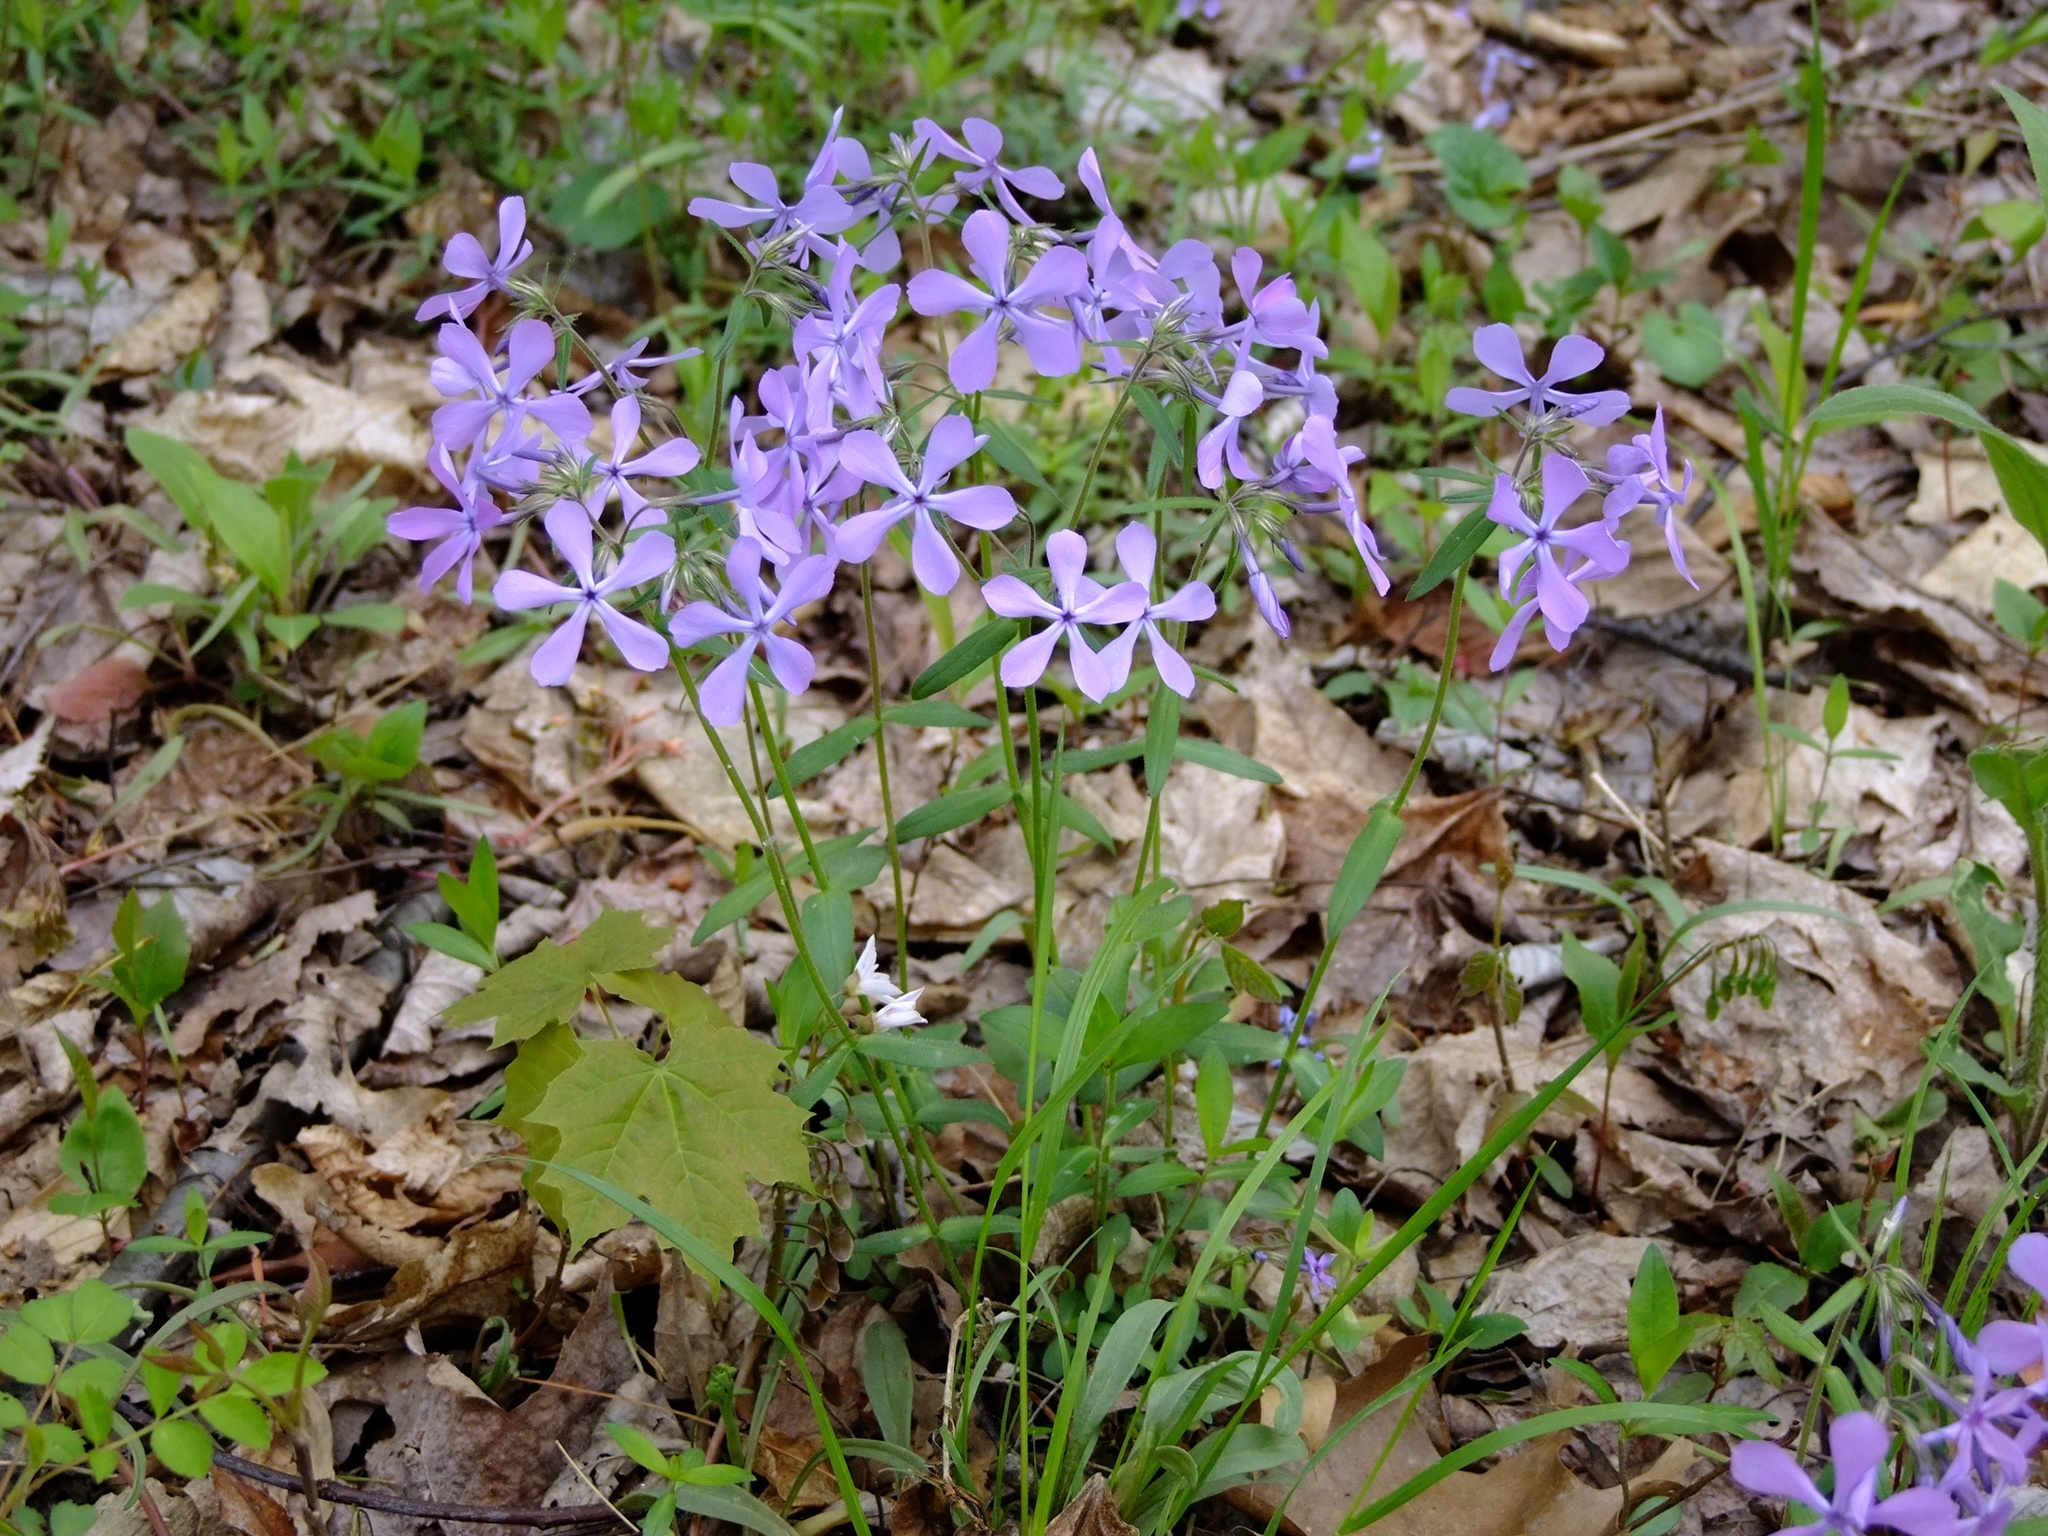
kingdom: Plantae
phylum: Tracheophyta
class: Magnoliopsida
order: Ericales
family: Polemoniaceae
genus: Phlox
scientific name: Phlox divaricata
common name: Blue phlox
